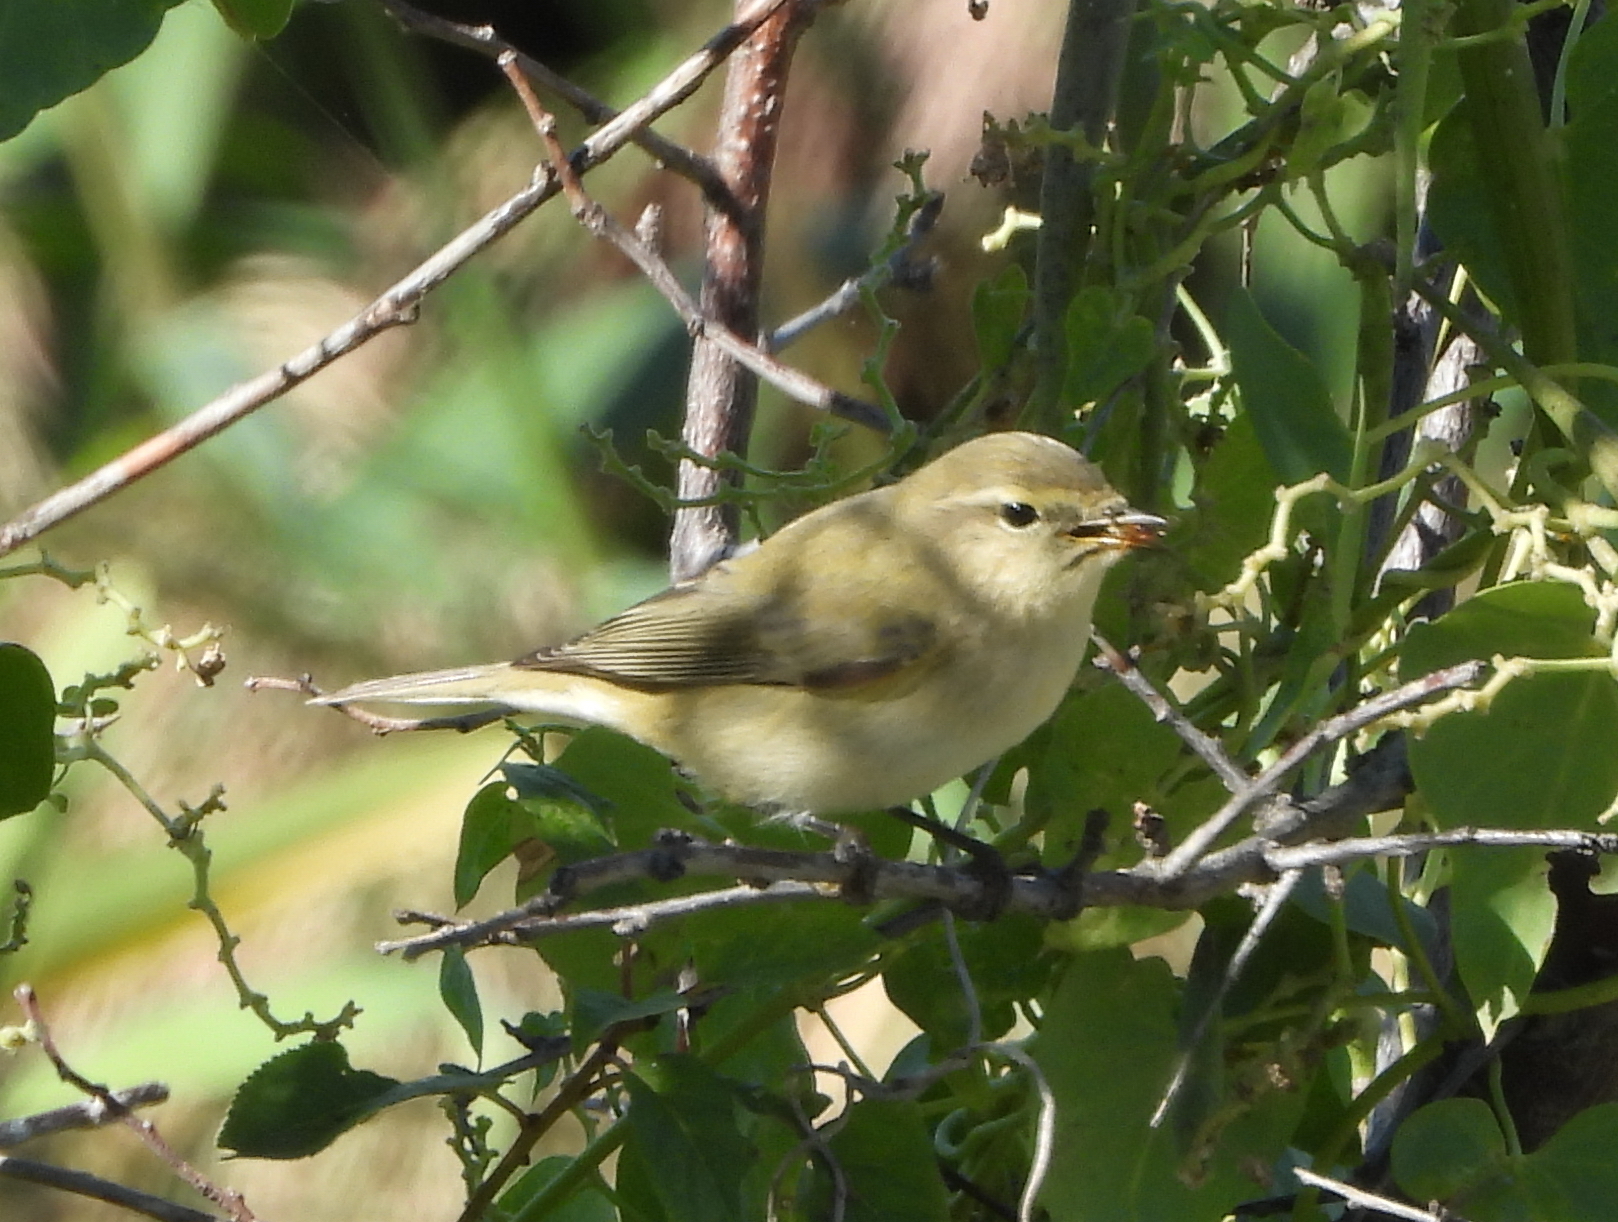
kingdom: Animalia
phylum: Chordata
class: Aves
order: Passeriformes
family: Phylloscopidae
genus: Phylloscopus
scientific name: Phylloscopus collybita
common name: Common chiffchaff
